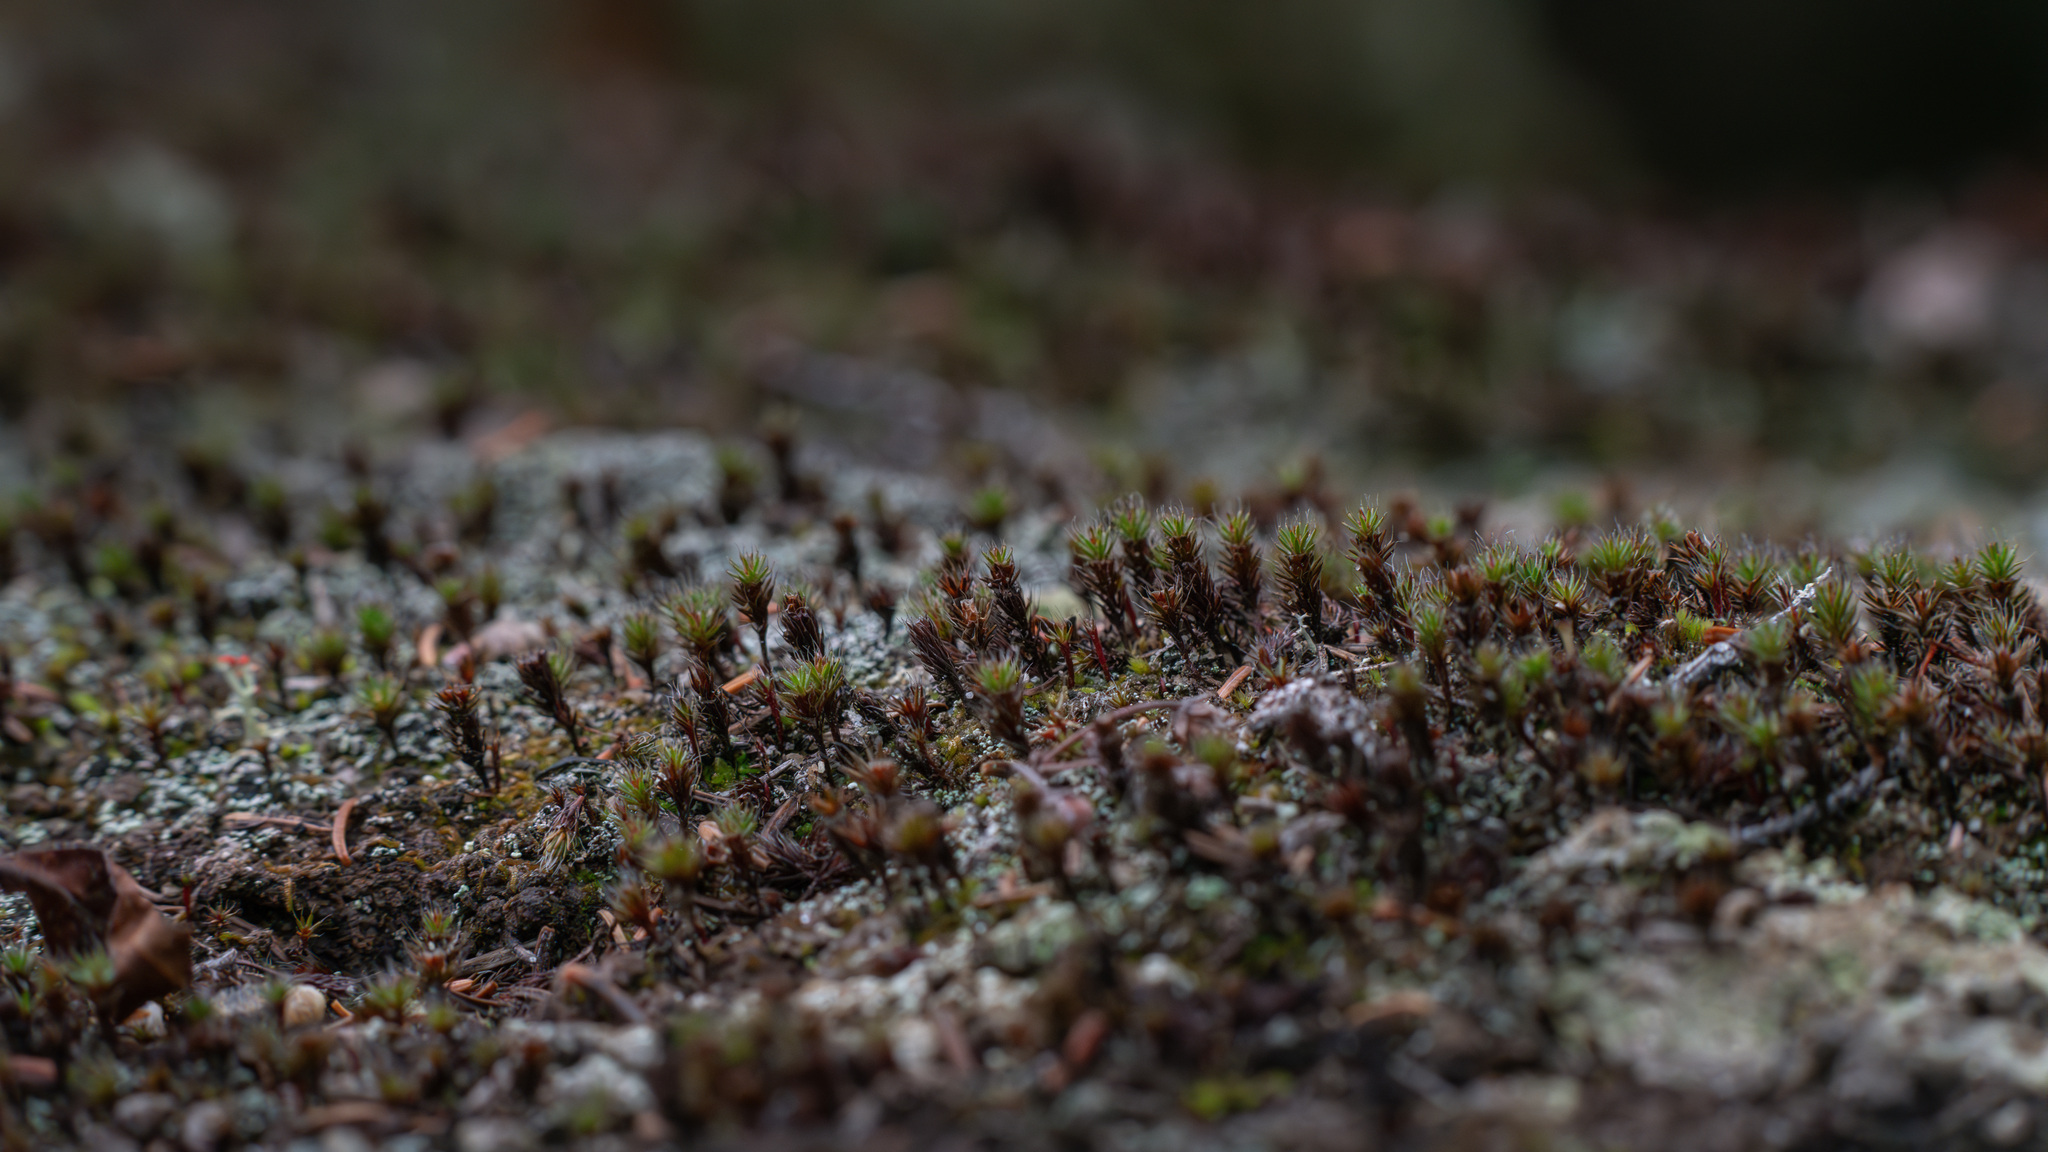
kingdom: Plantae
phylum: Bryophyta
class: Polytrichopsida
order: Polytrichales
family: Polytrichaceae
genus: Polytrichum
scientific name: Polytrichum piliferum
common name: Bristly haircap
